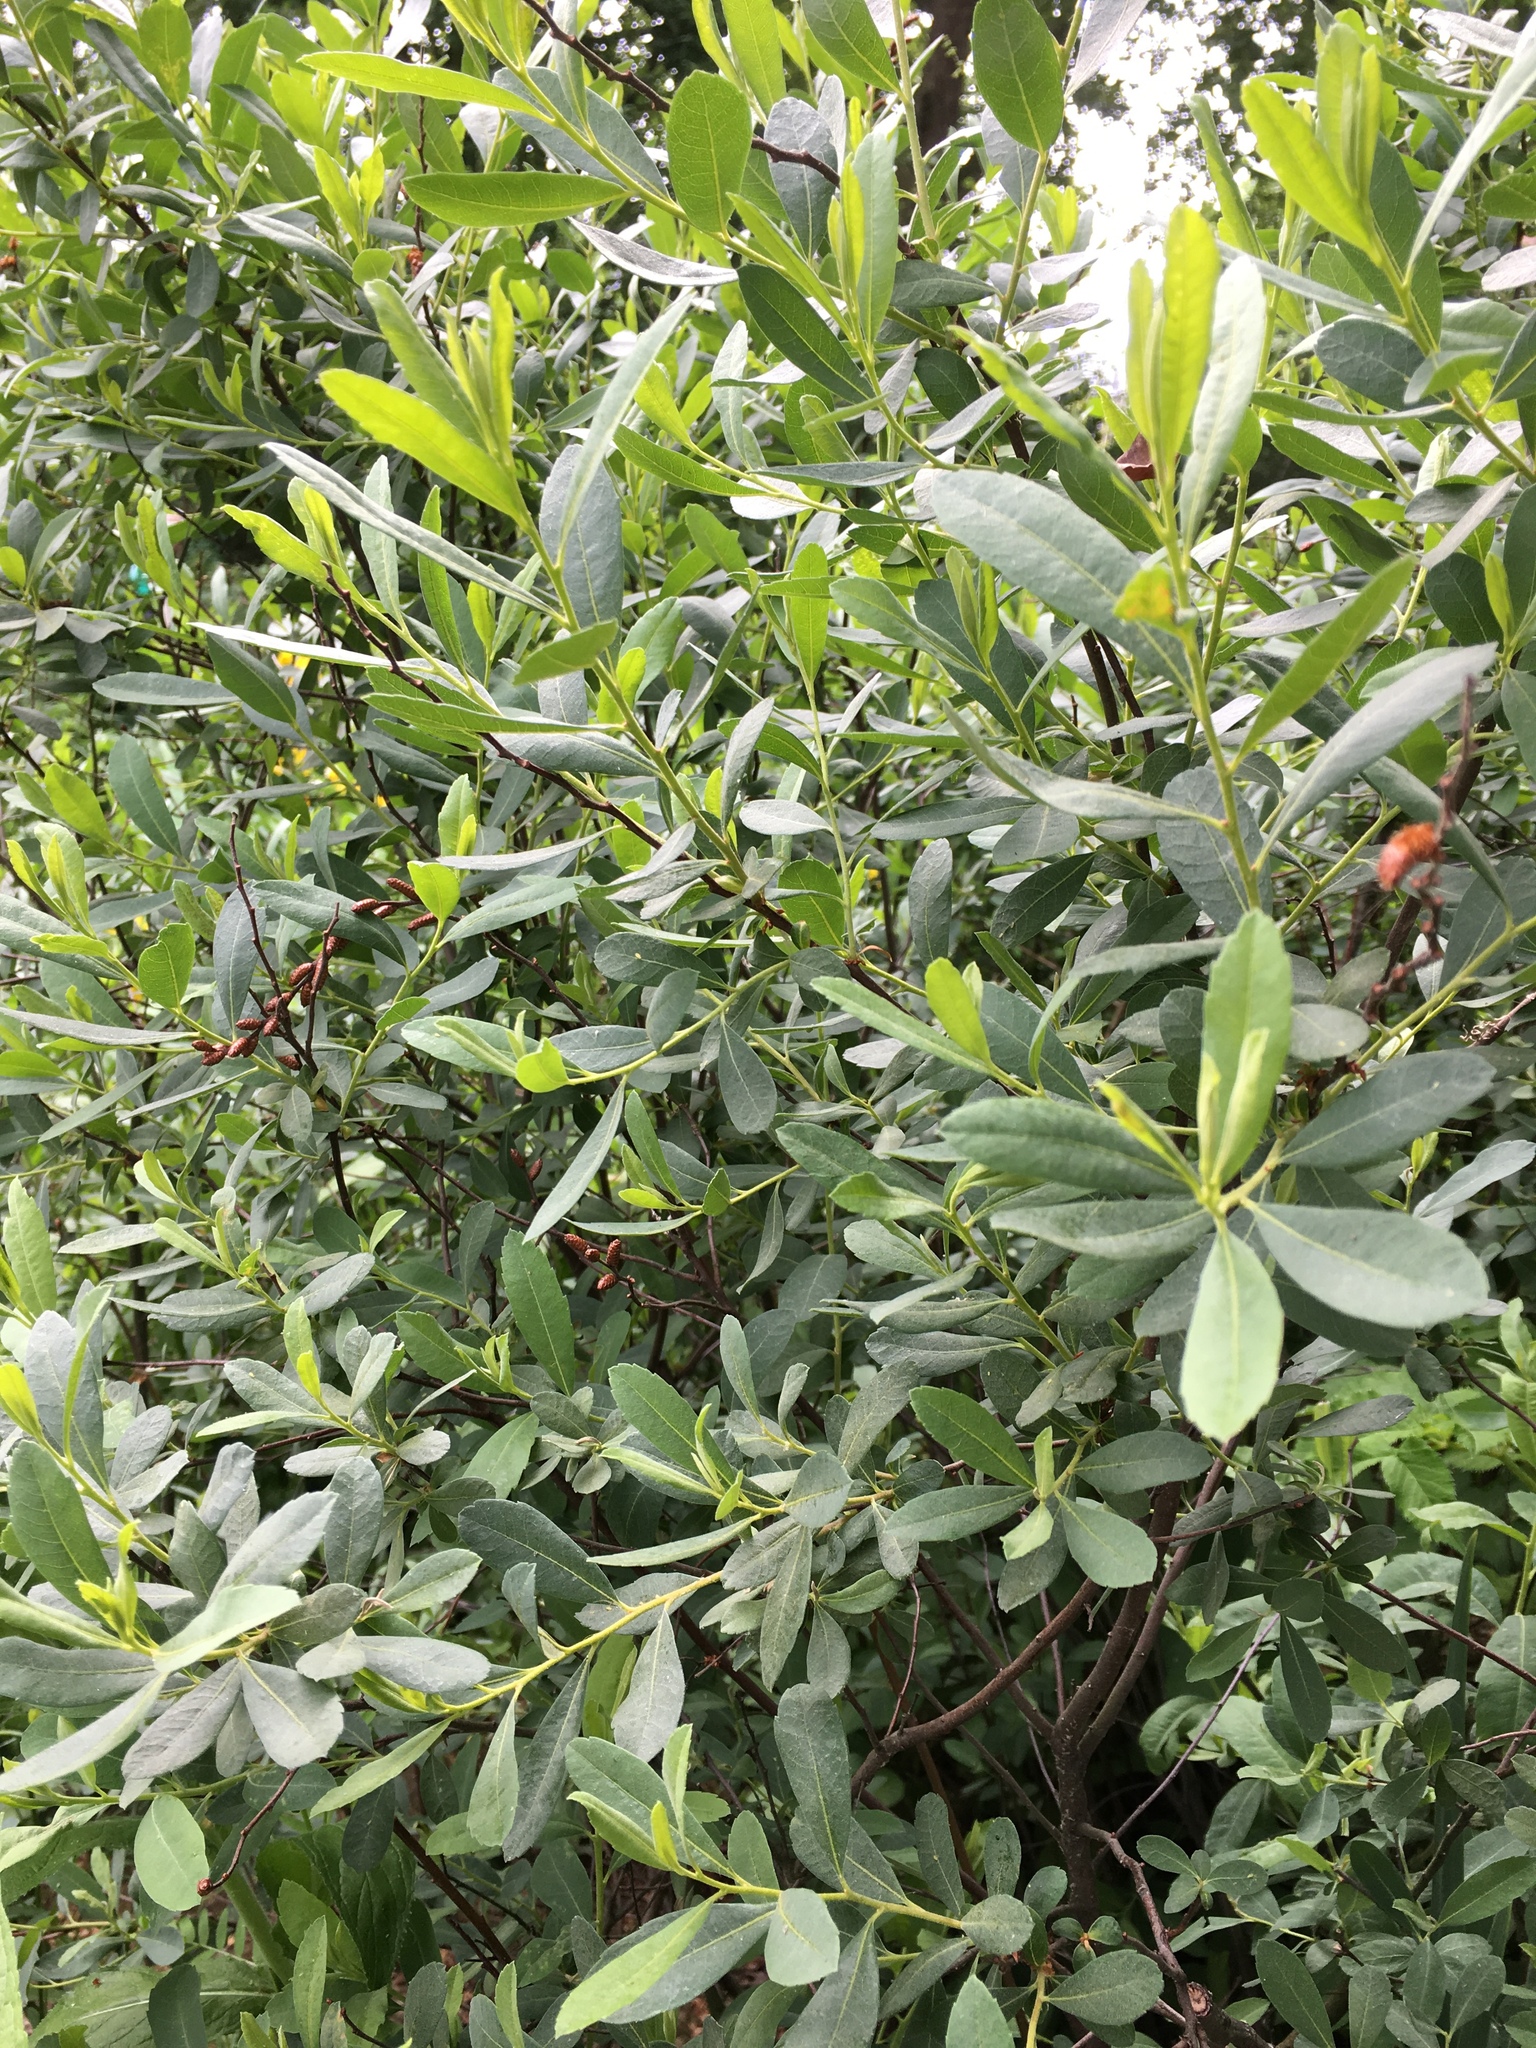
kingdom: Plantae
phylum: Tracheophyta
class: Magnoliopsida
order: Fagales
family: Myricaceae
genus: Myrica
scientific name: Myrica gale
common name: Sweet gale
